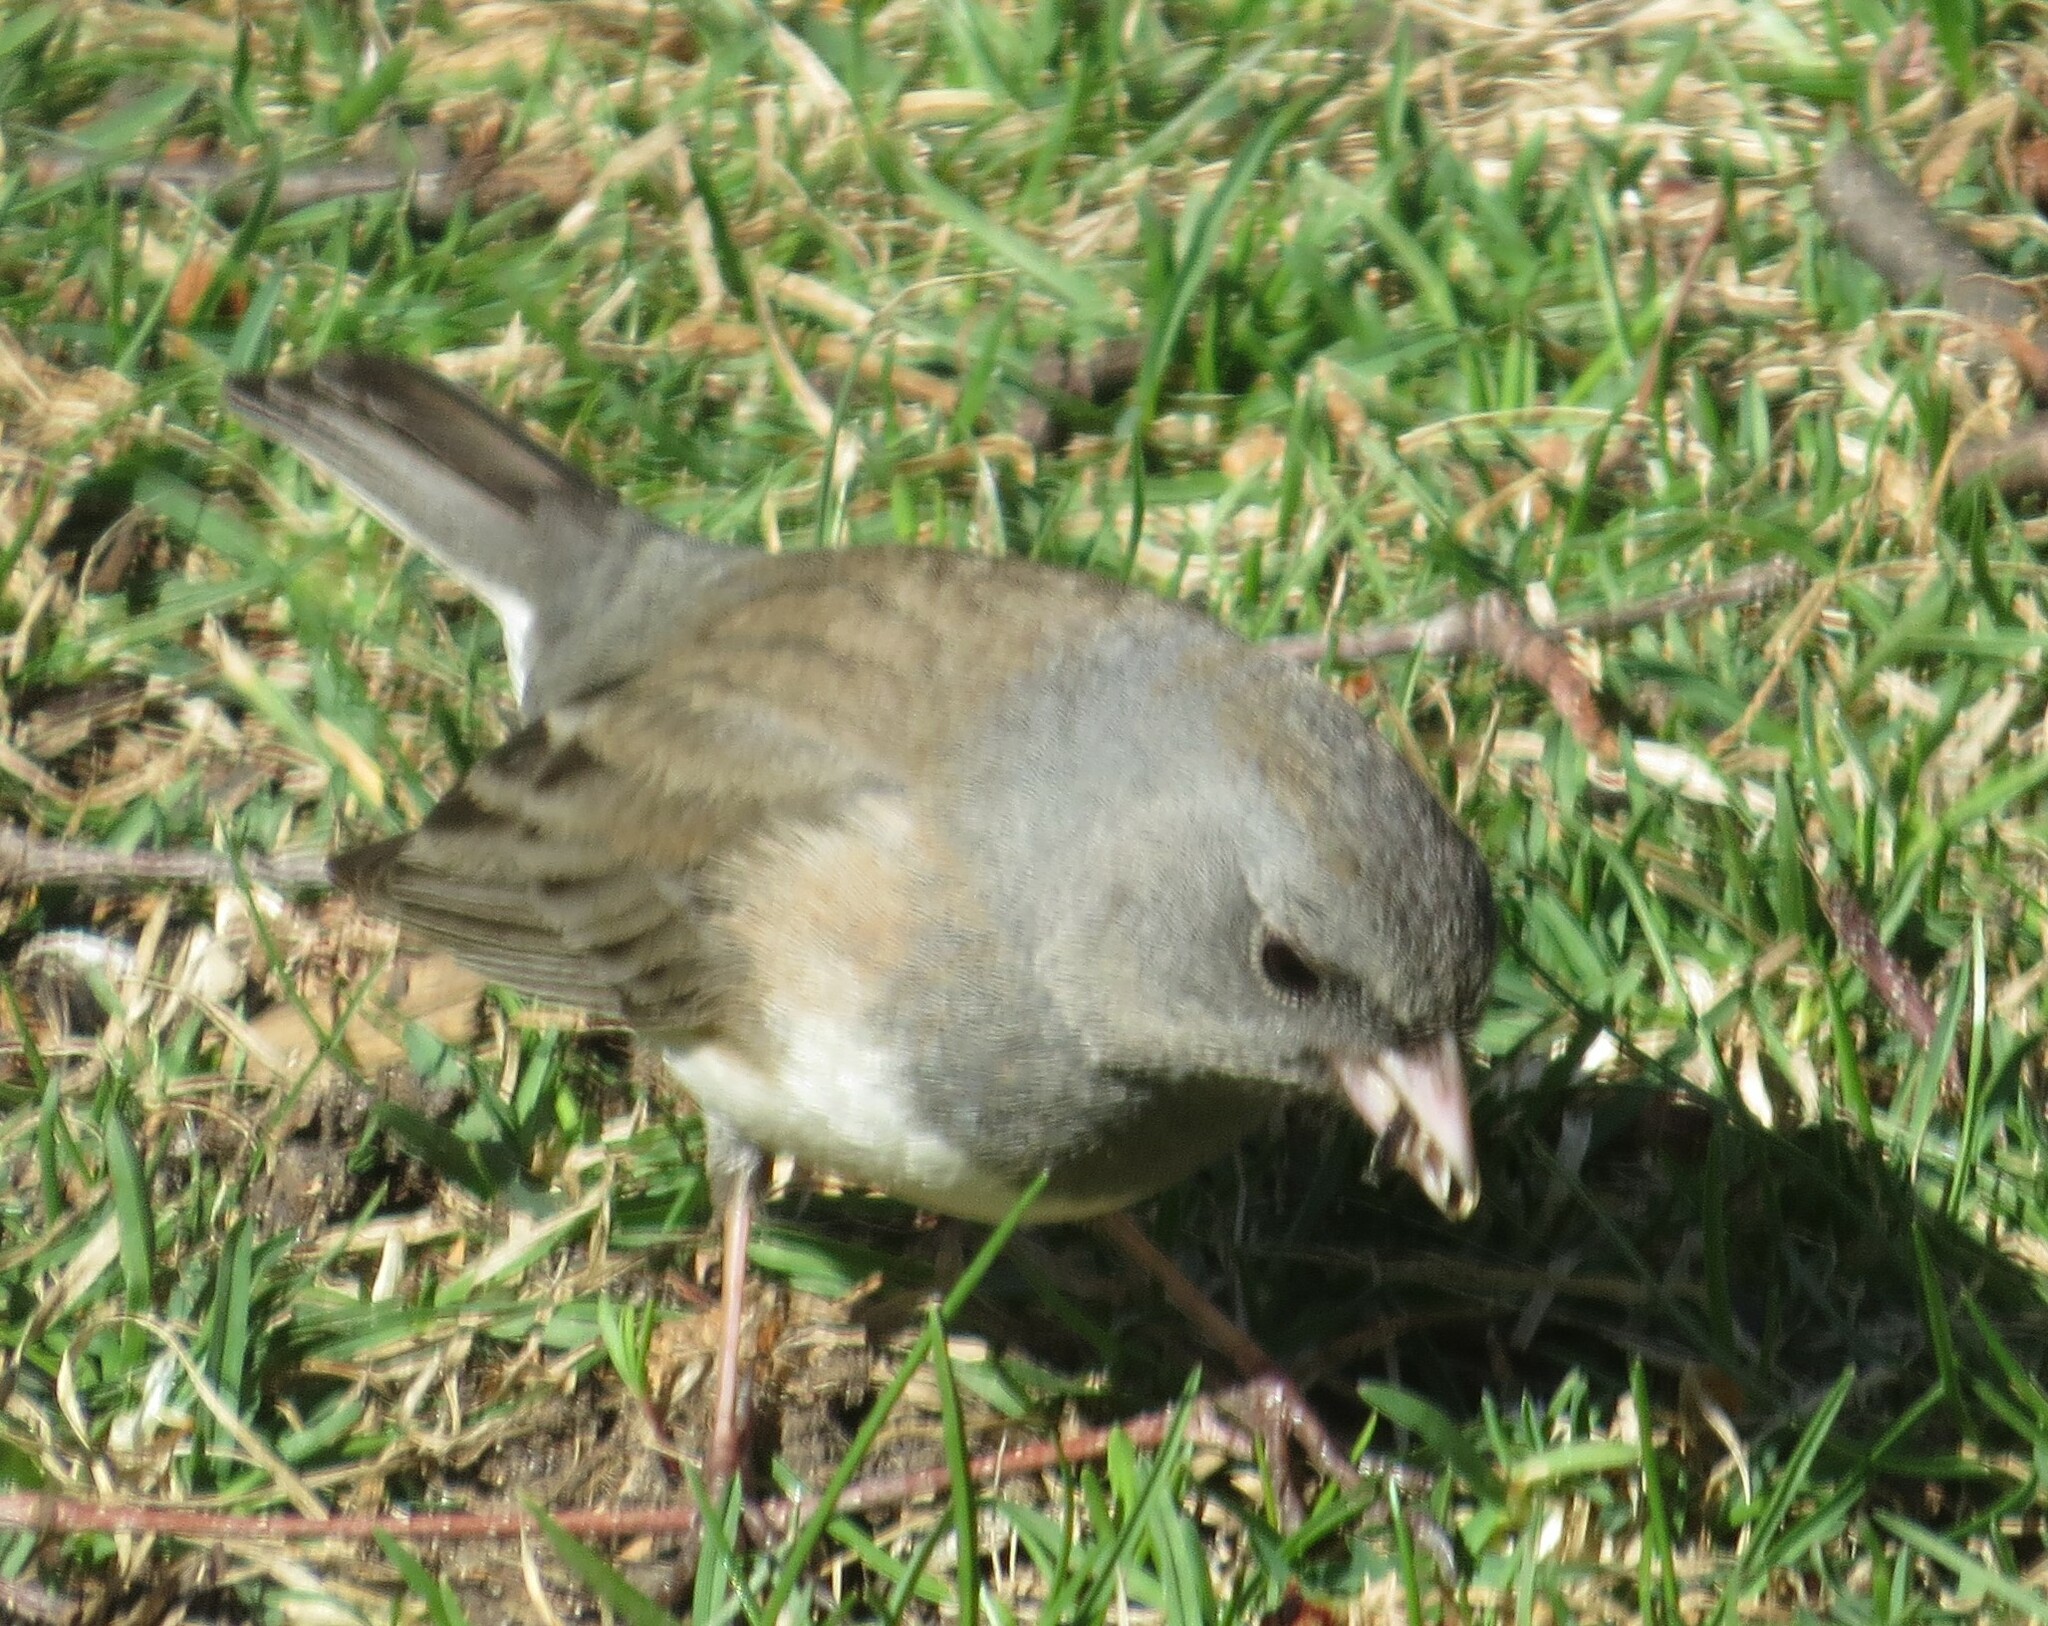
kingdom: Animalia
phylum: Chordata
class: Aves
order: Passeriformes
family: Passerellidae
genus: Junco
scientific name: Junco hyemalis
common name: Dark-eyed junco
